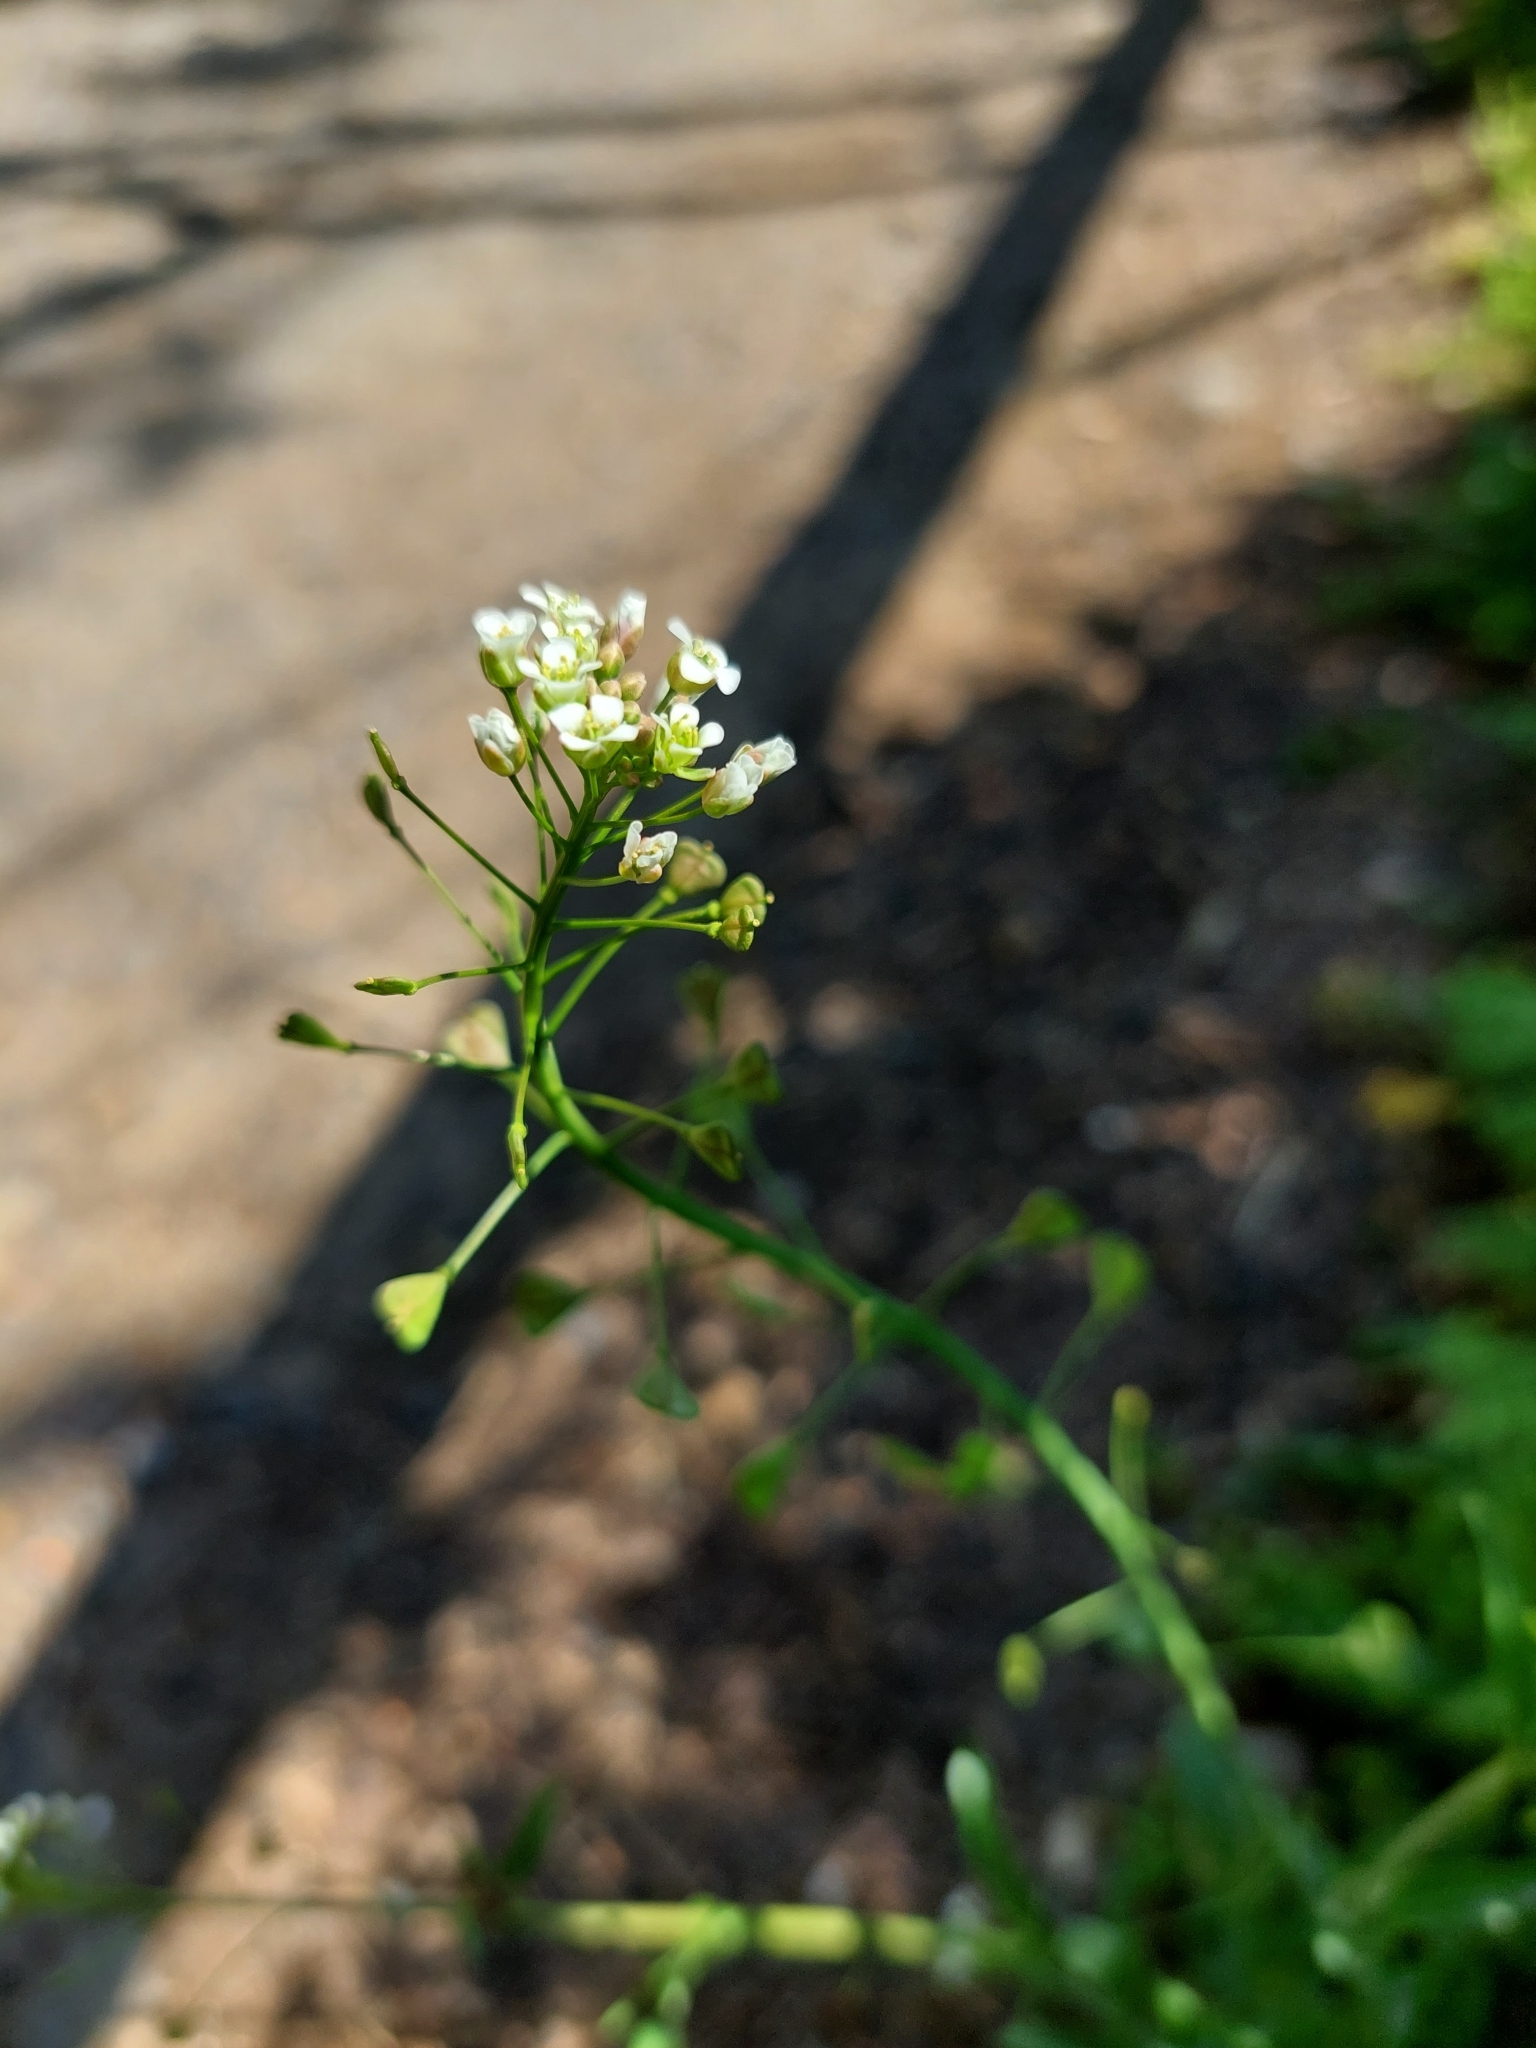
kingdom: Plantae
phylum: Tracheophyta
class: Magnoliopsida
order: Brassicales
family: Brassicaceae
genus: Capsella
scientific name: Capsella bursa-pastoris
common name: Shepherd's purse
